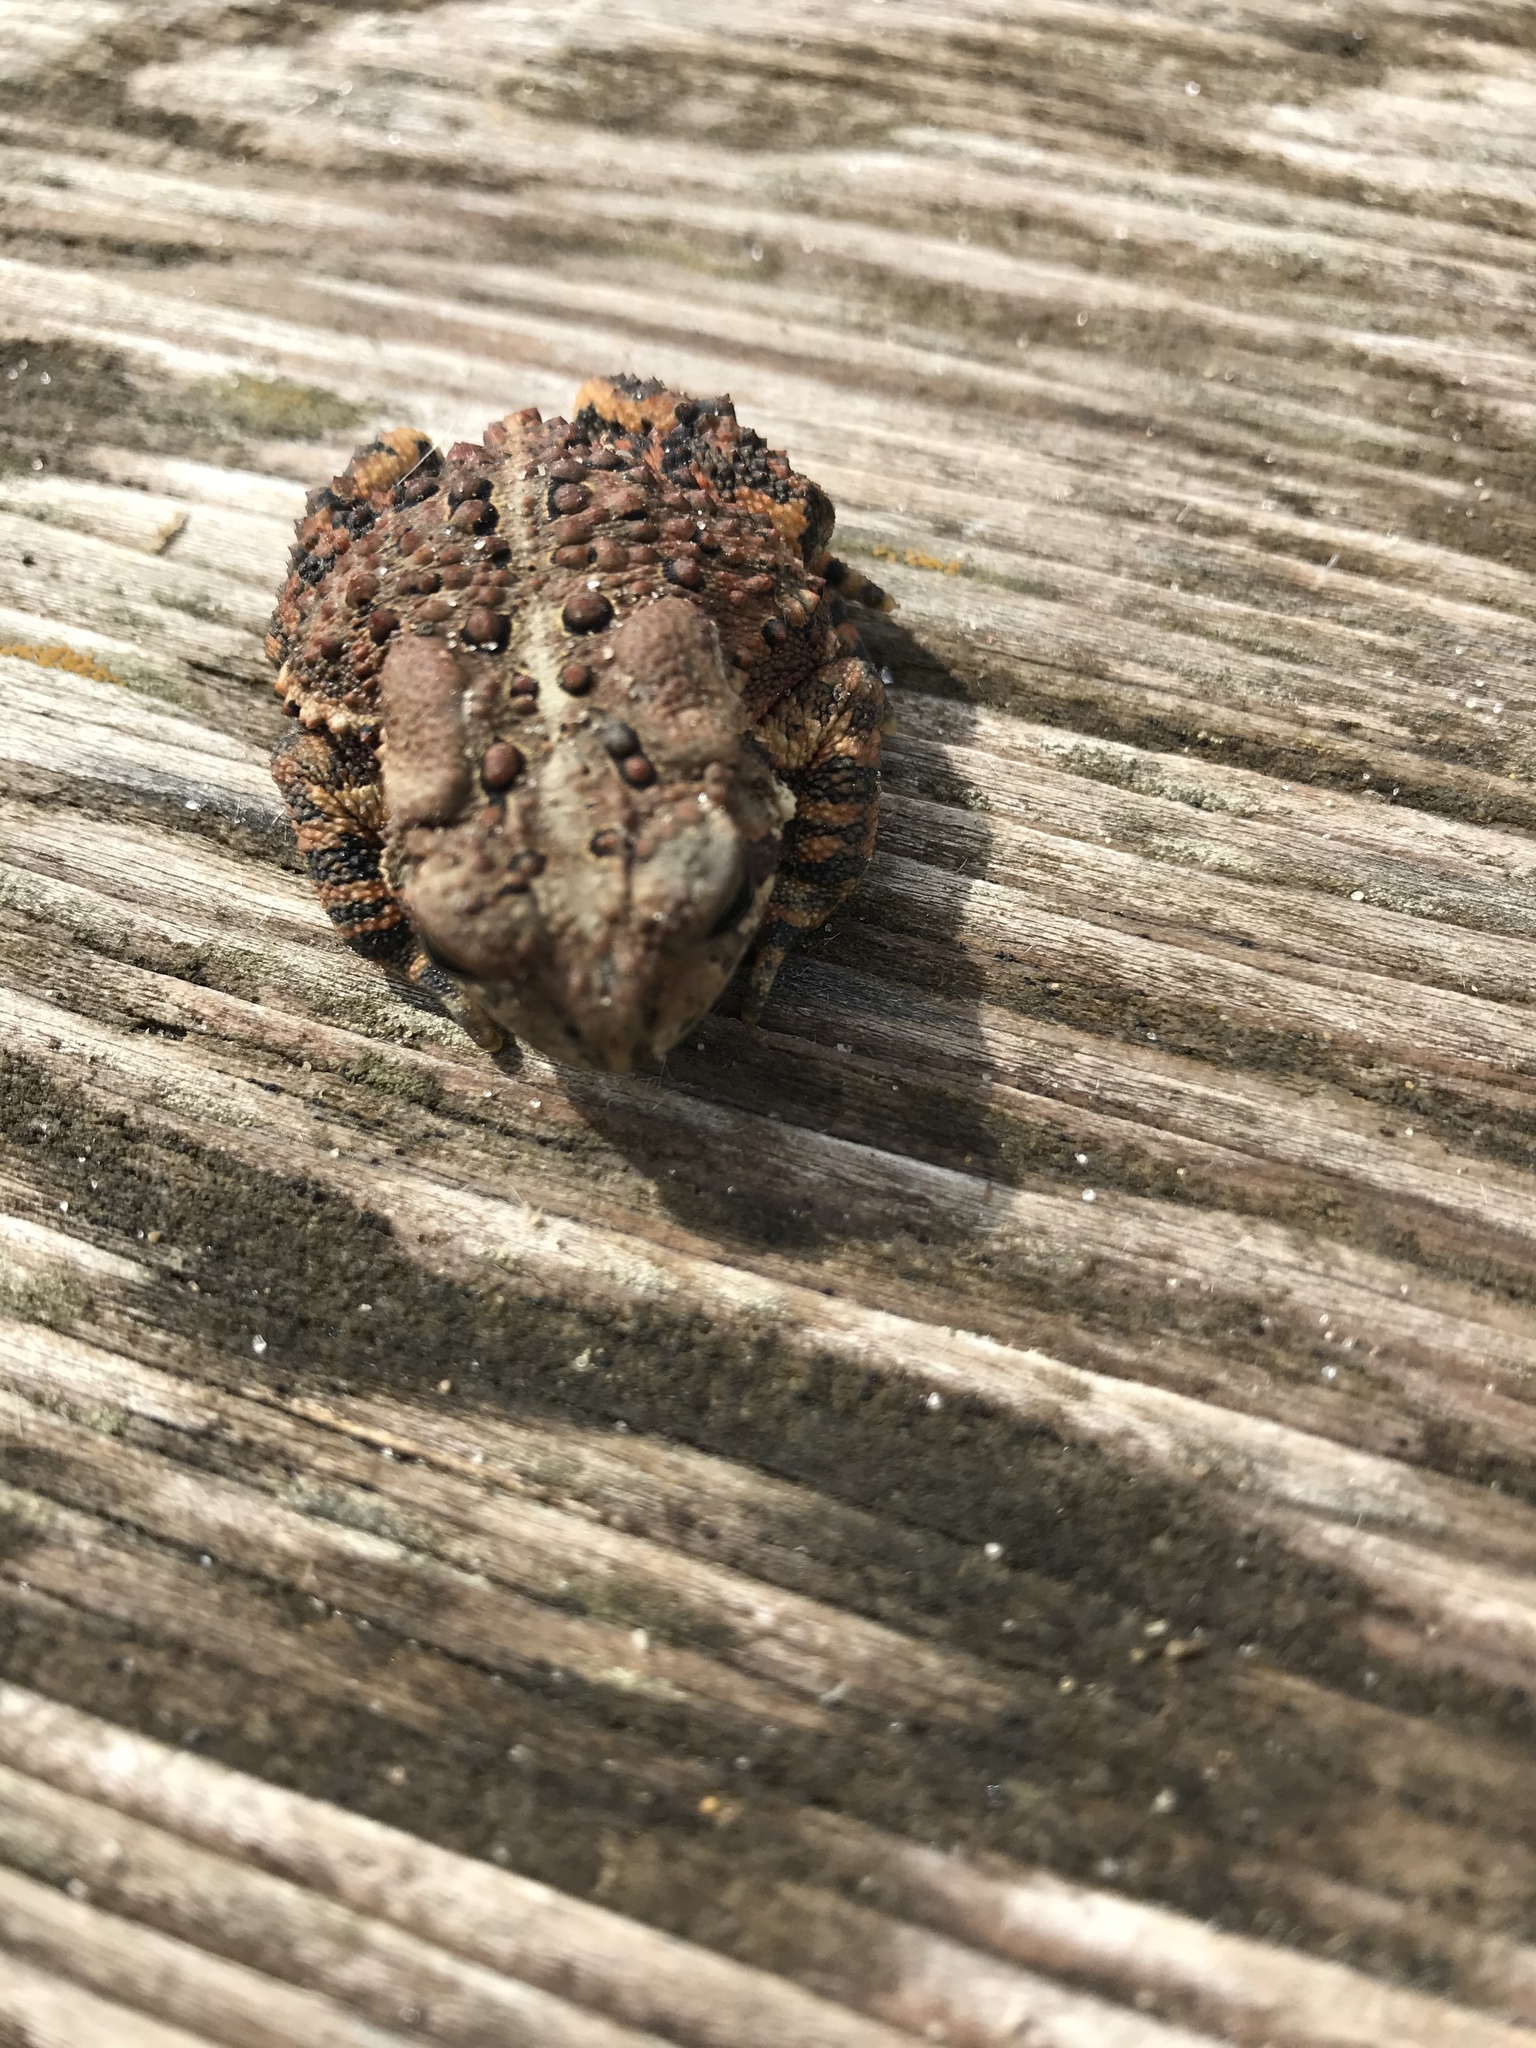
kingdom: Animalia
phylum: Chordata
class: Amphibia
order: Anura
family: Bufonidae
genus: Anaxyrus
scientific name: Anaxyrus americanus
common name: American toad
